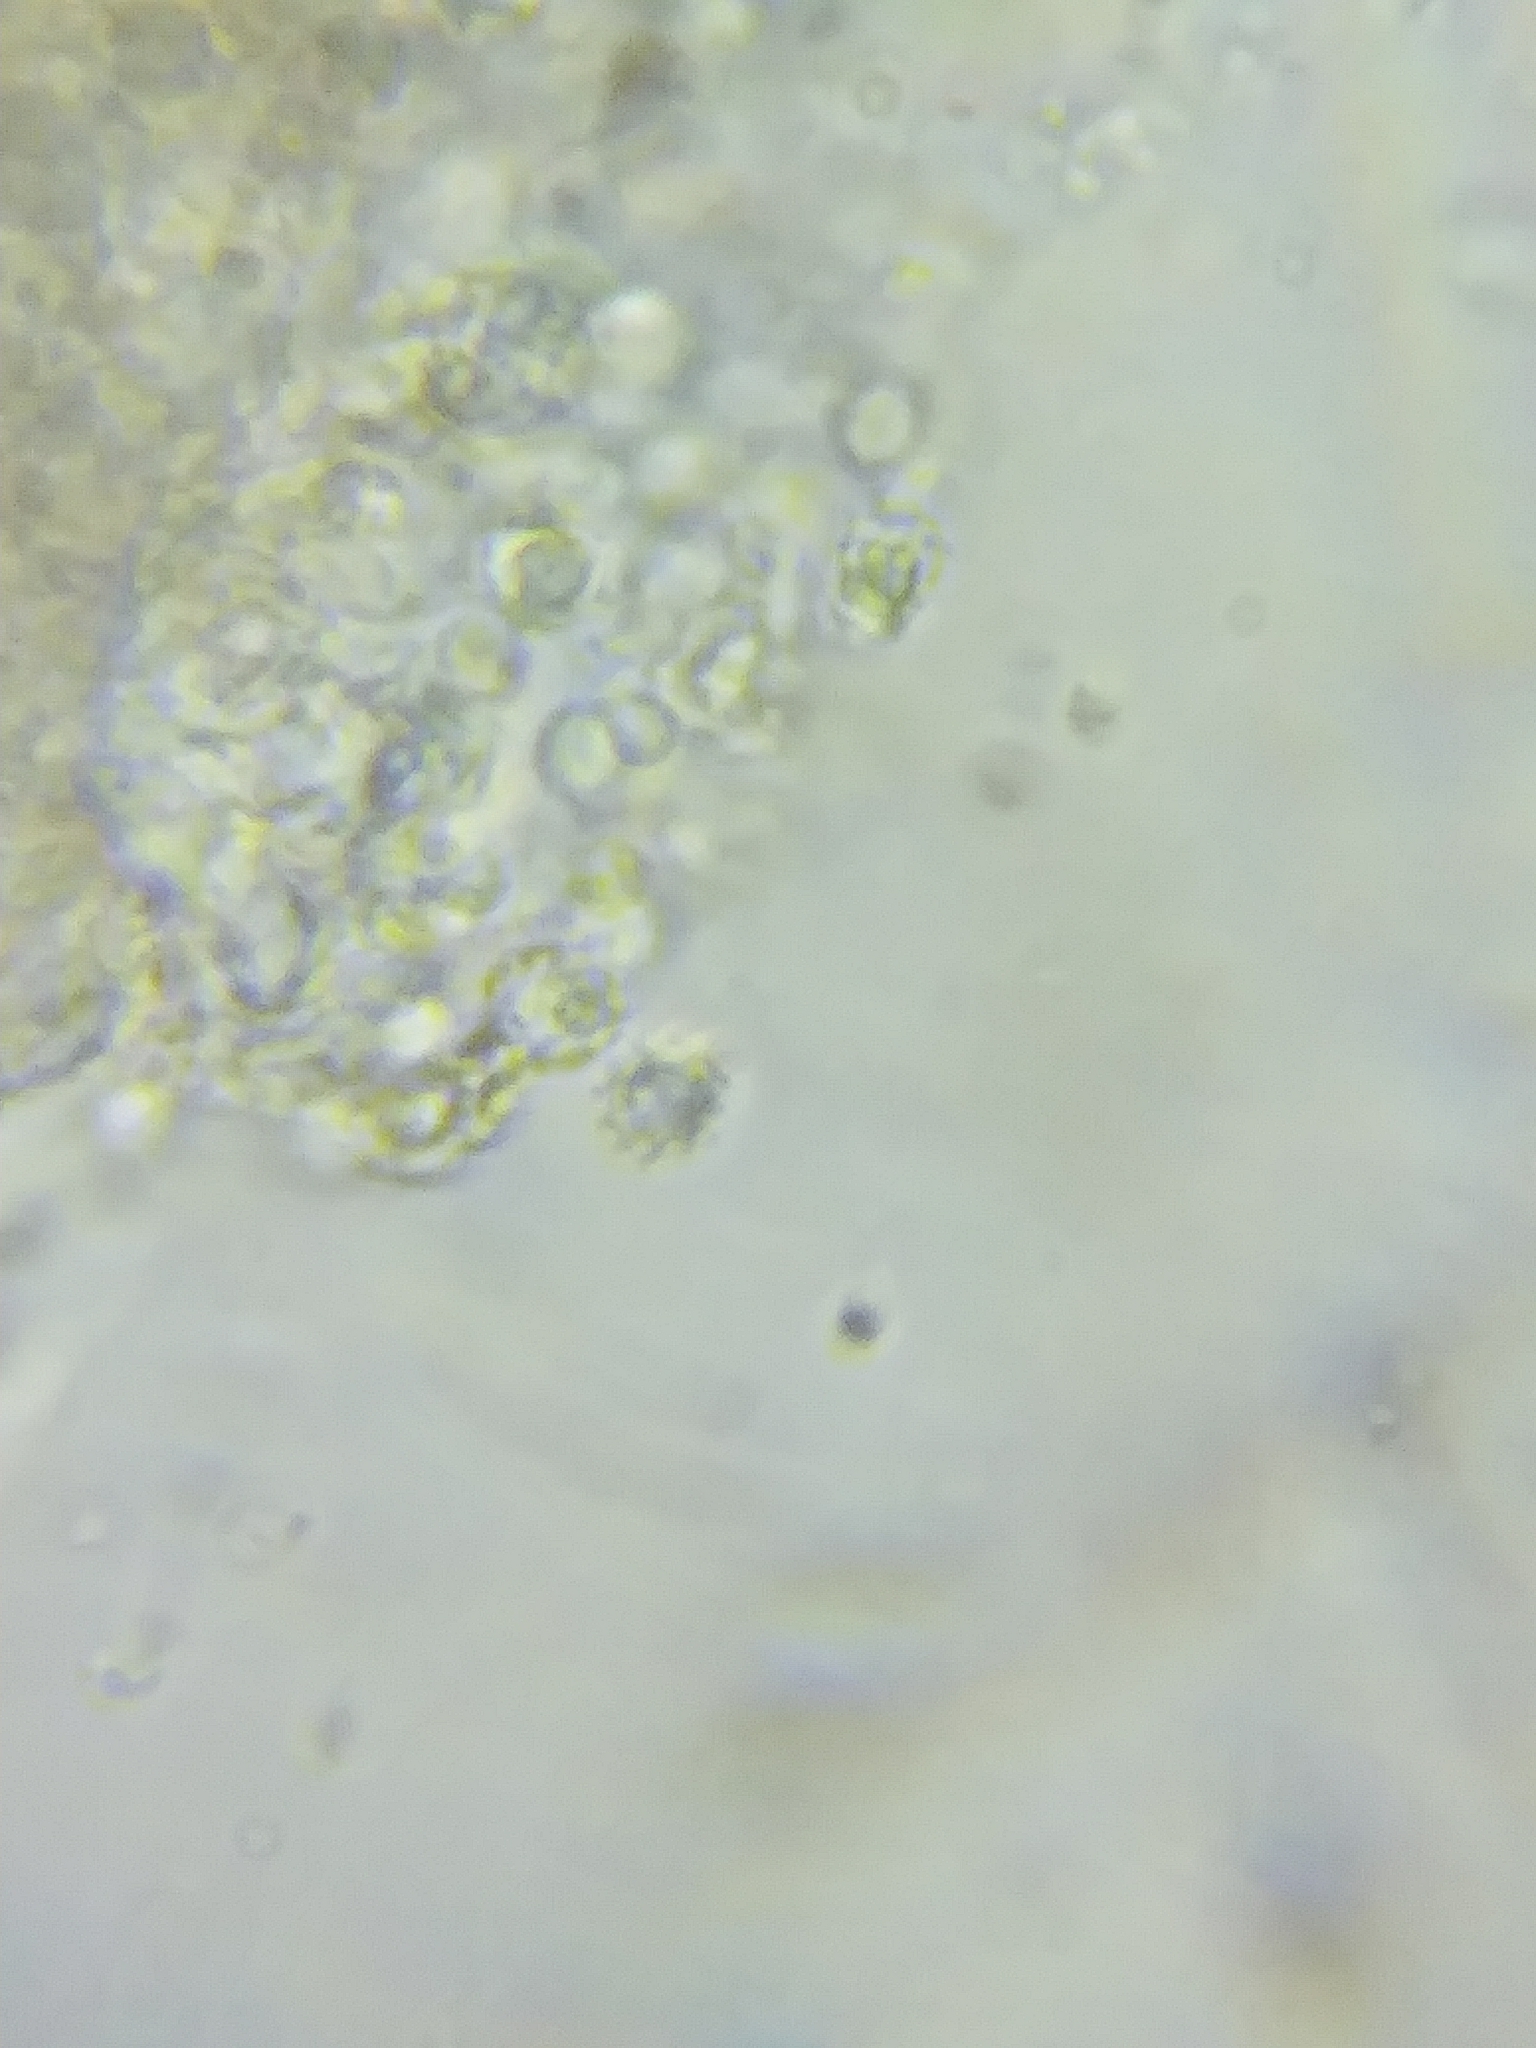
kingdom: Fungi
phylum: Basidiomycota
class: Agaricomycetes
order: Russulales
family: Xenasmataceae
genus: Xenasmatella
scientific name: Xenasmatella vaga
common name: Yellow cobweb
